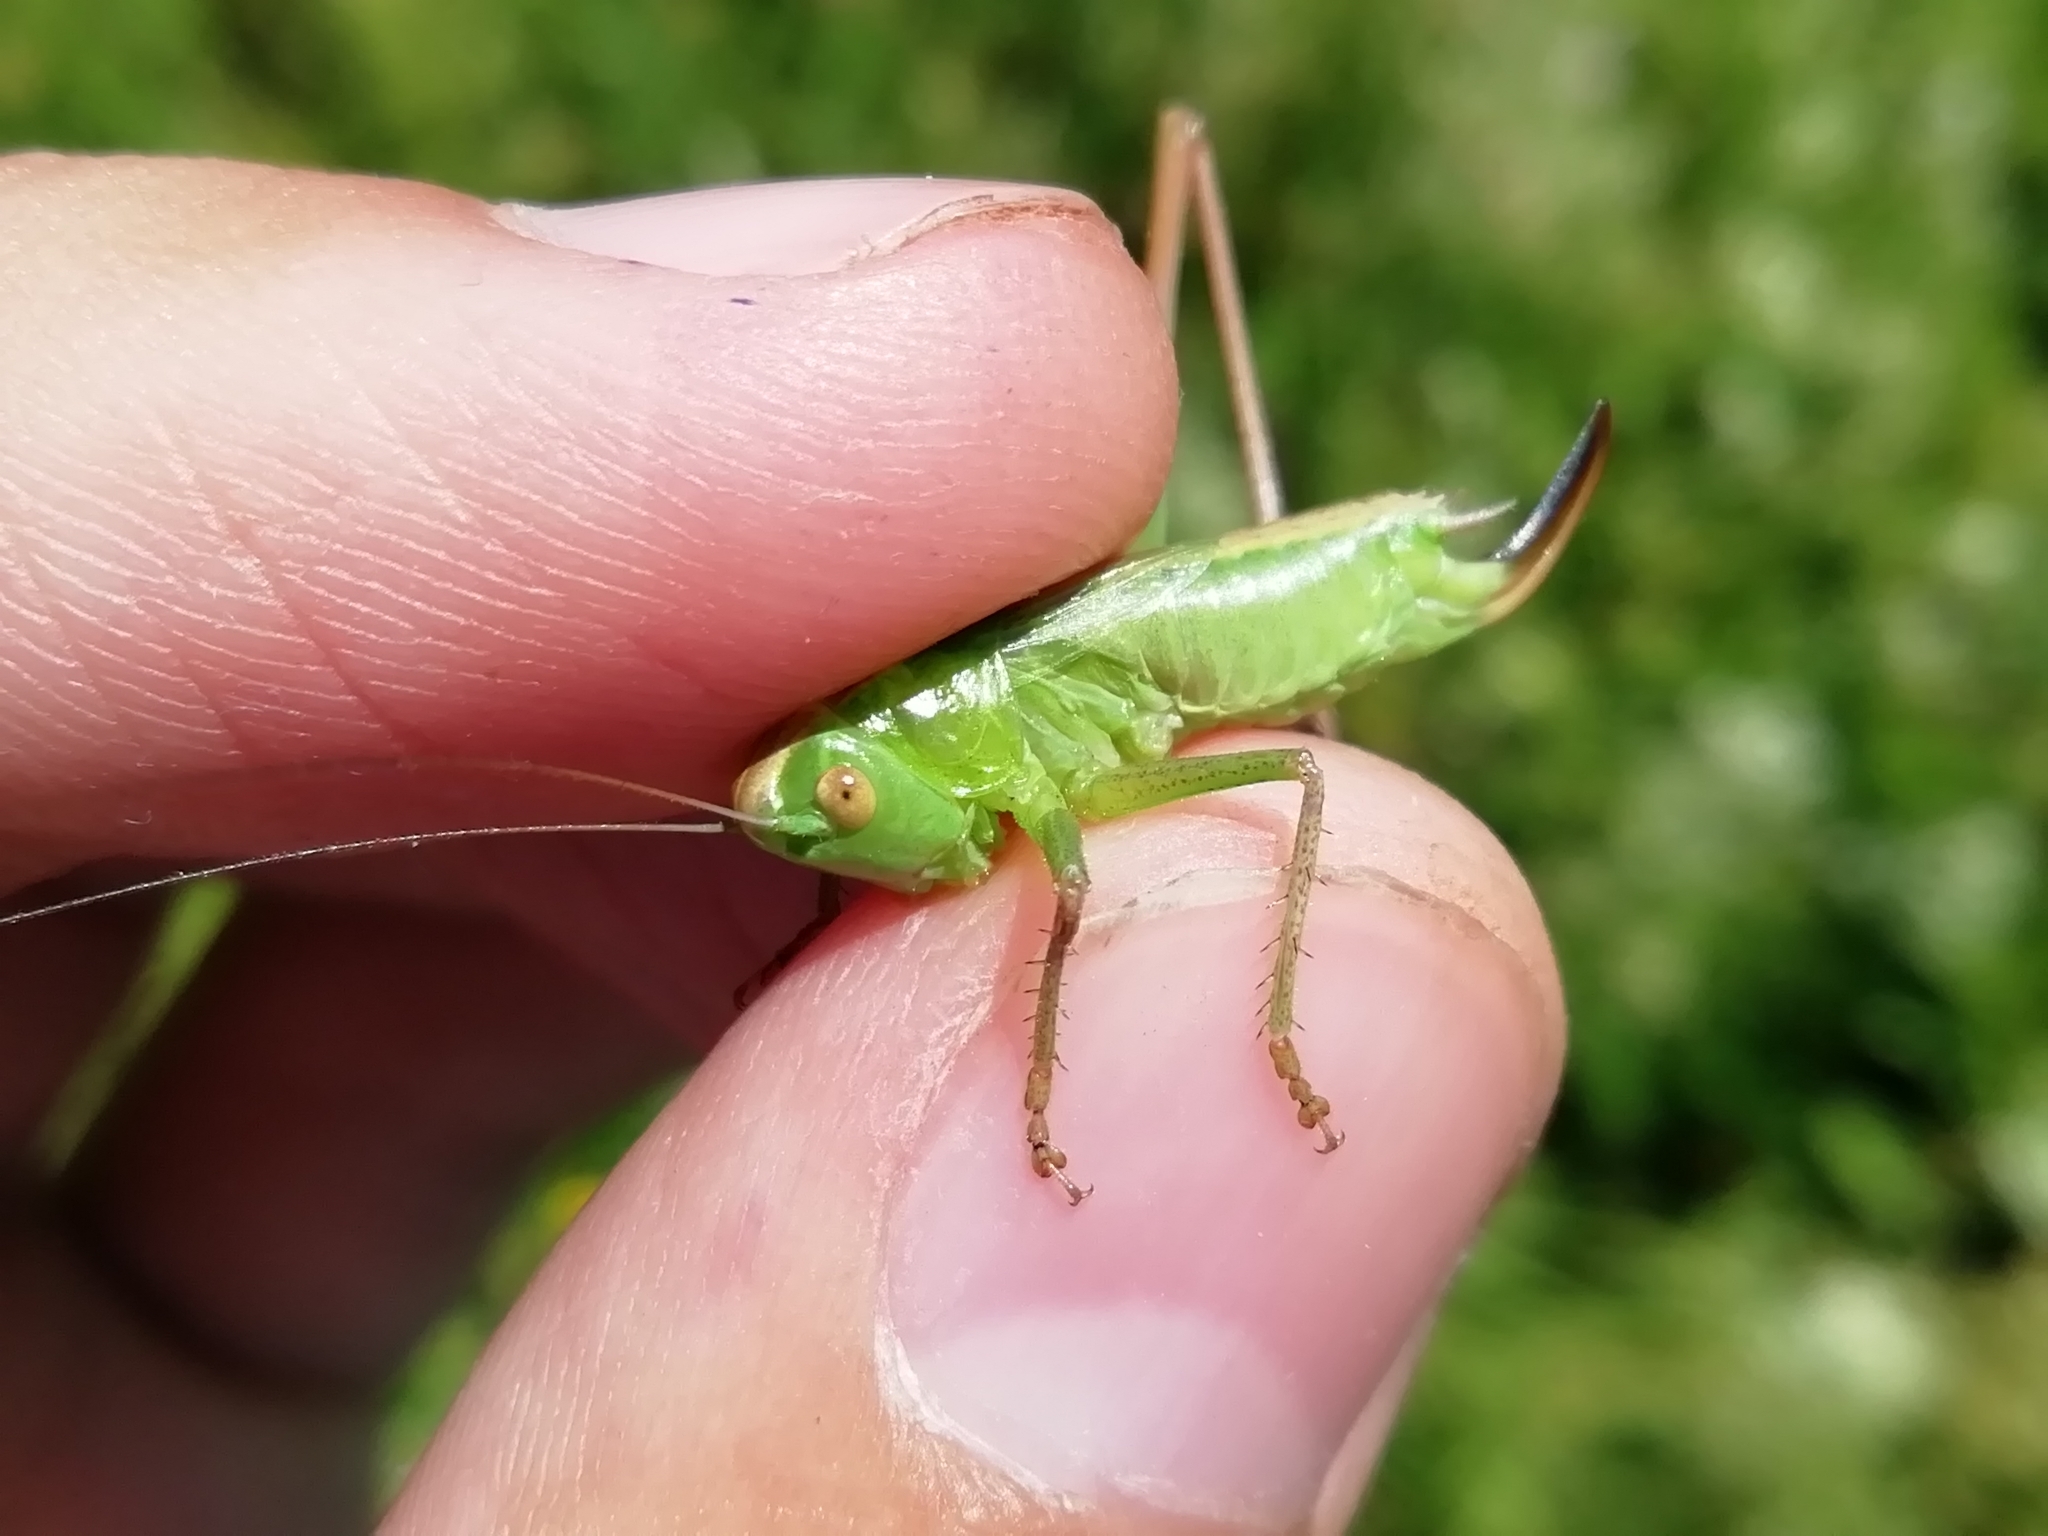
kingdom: Animalia
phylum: Arthropoda
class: Insecta
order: Orthoptera
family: Tettigoniidae
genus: Bicolorana
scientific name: Bicolorana bicolor
